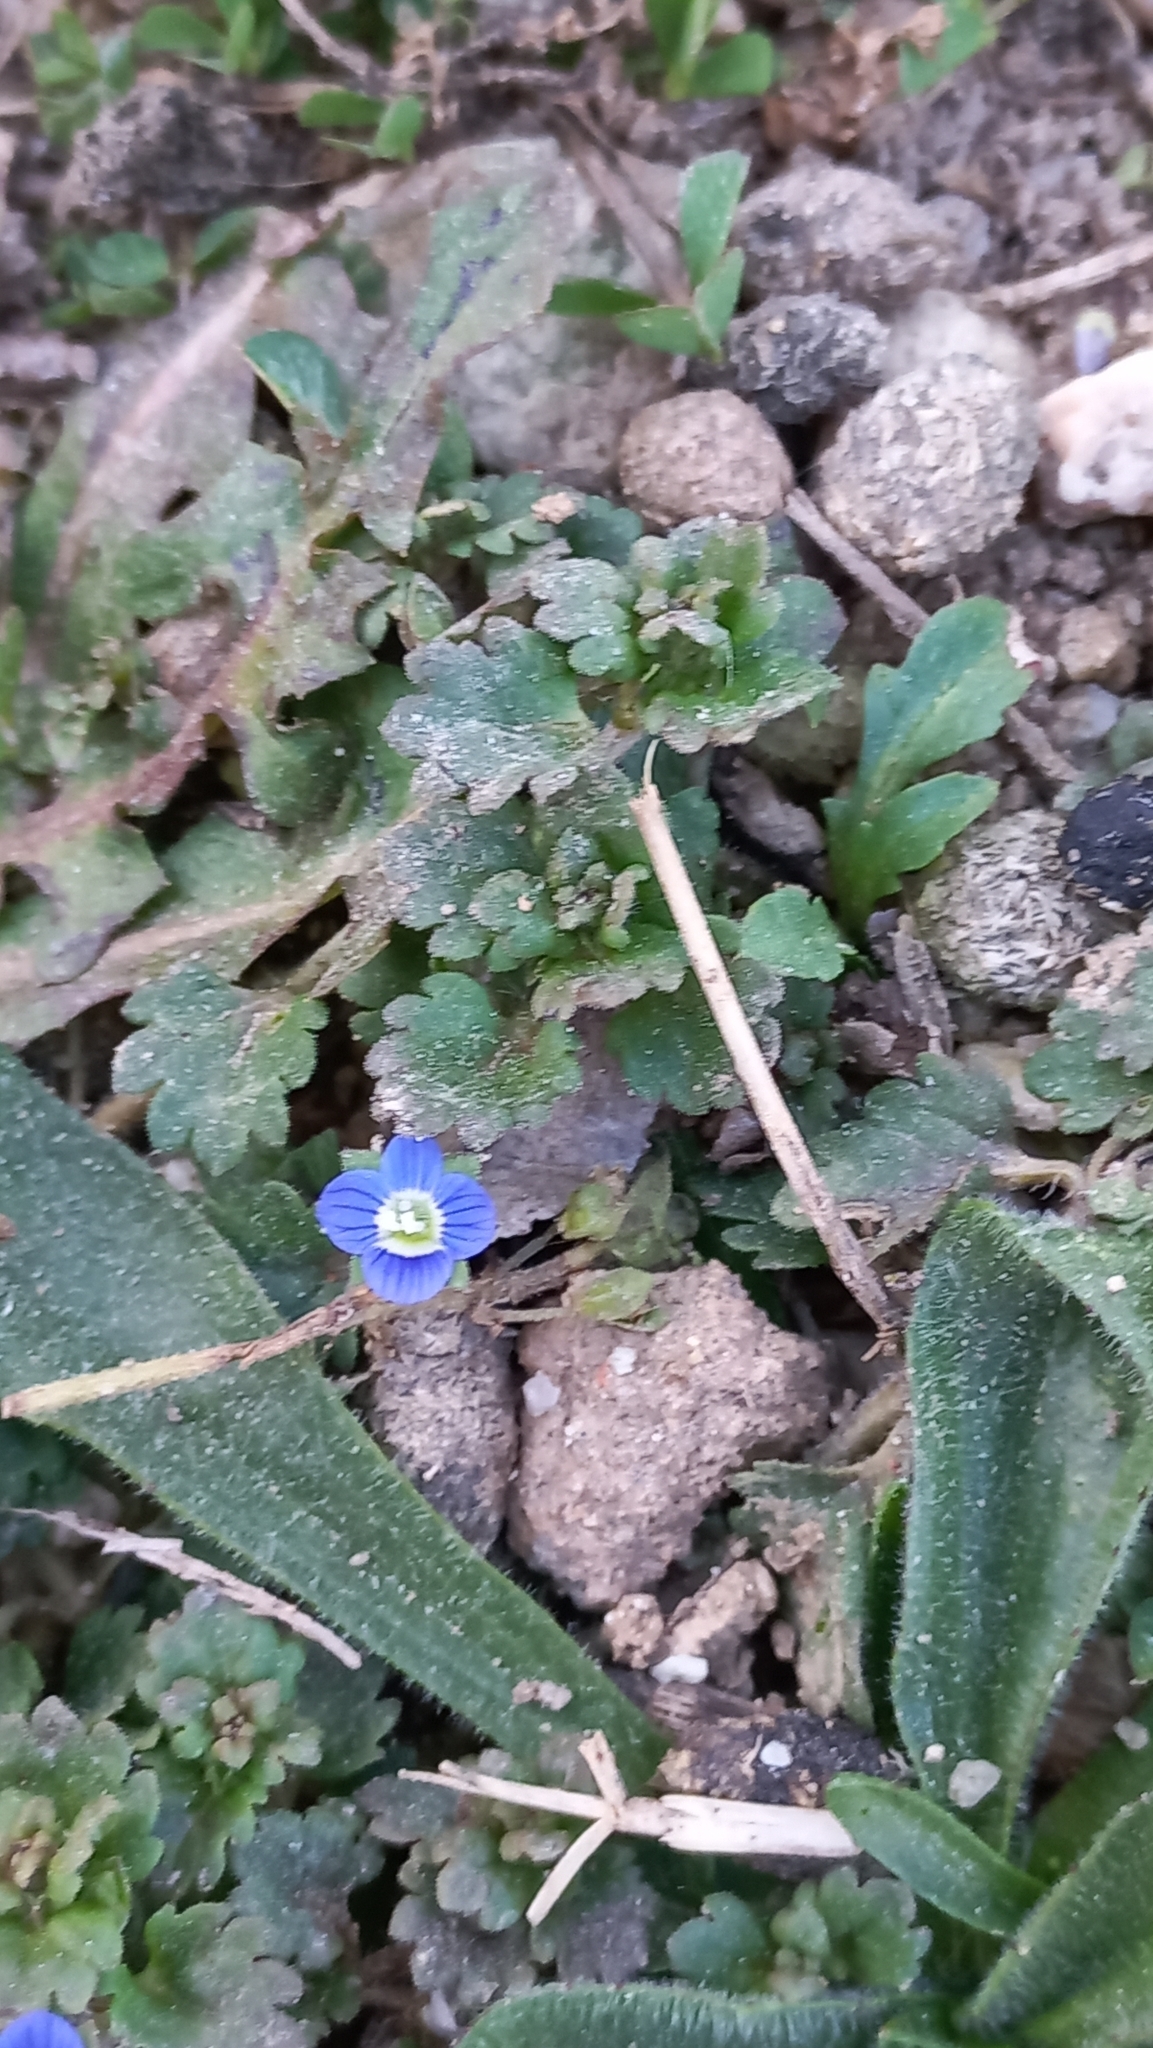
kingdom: Plantae
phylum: Tracheophyta
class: Magnoliopsida
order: Lamiales
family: Plantaginaceae
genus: Veronica
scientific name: Veronica polita
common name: Grey field-speedwell
